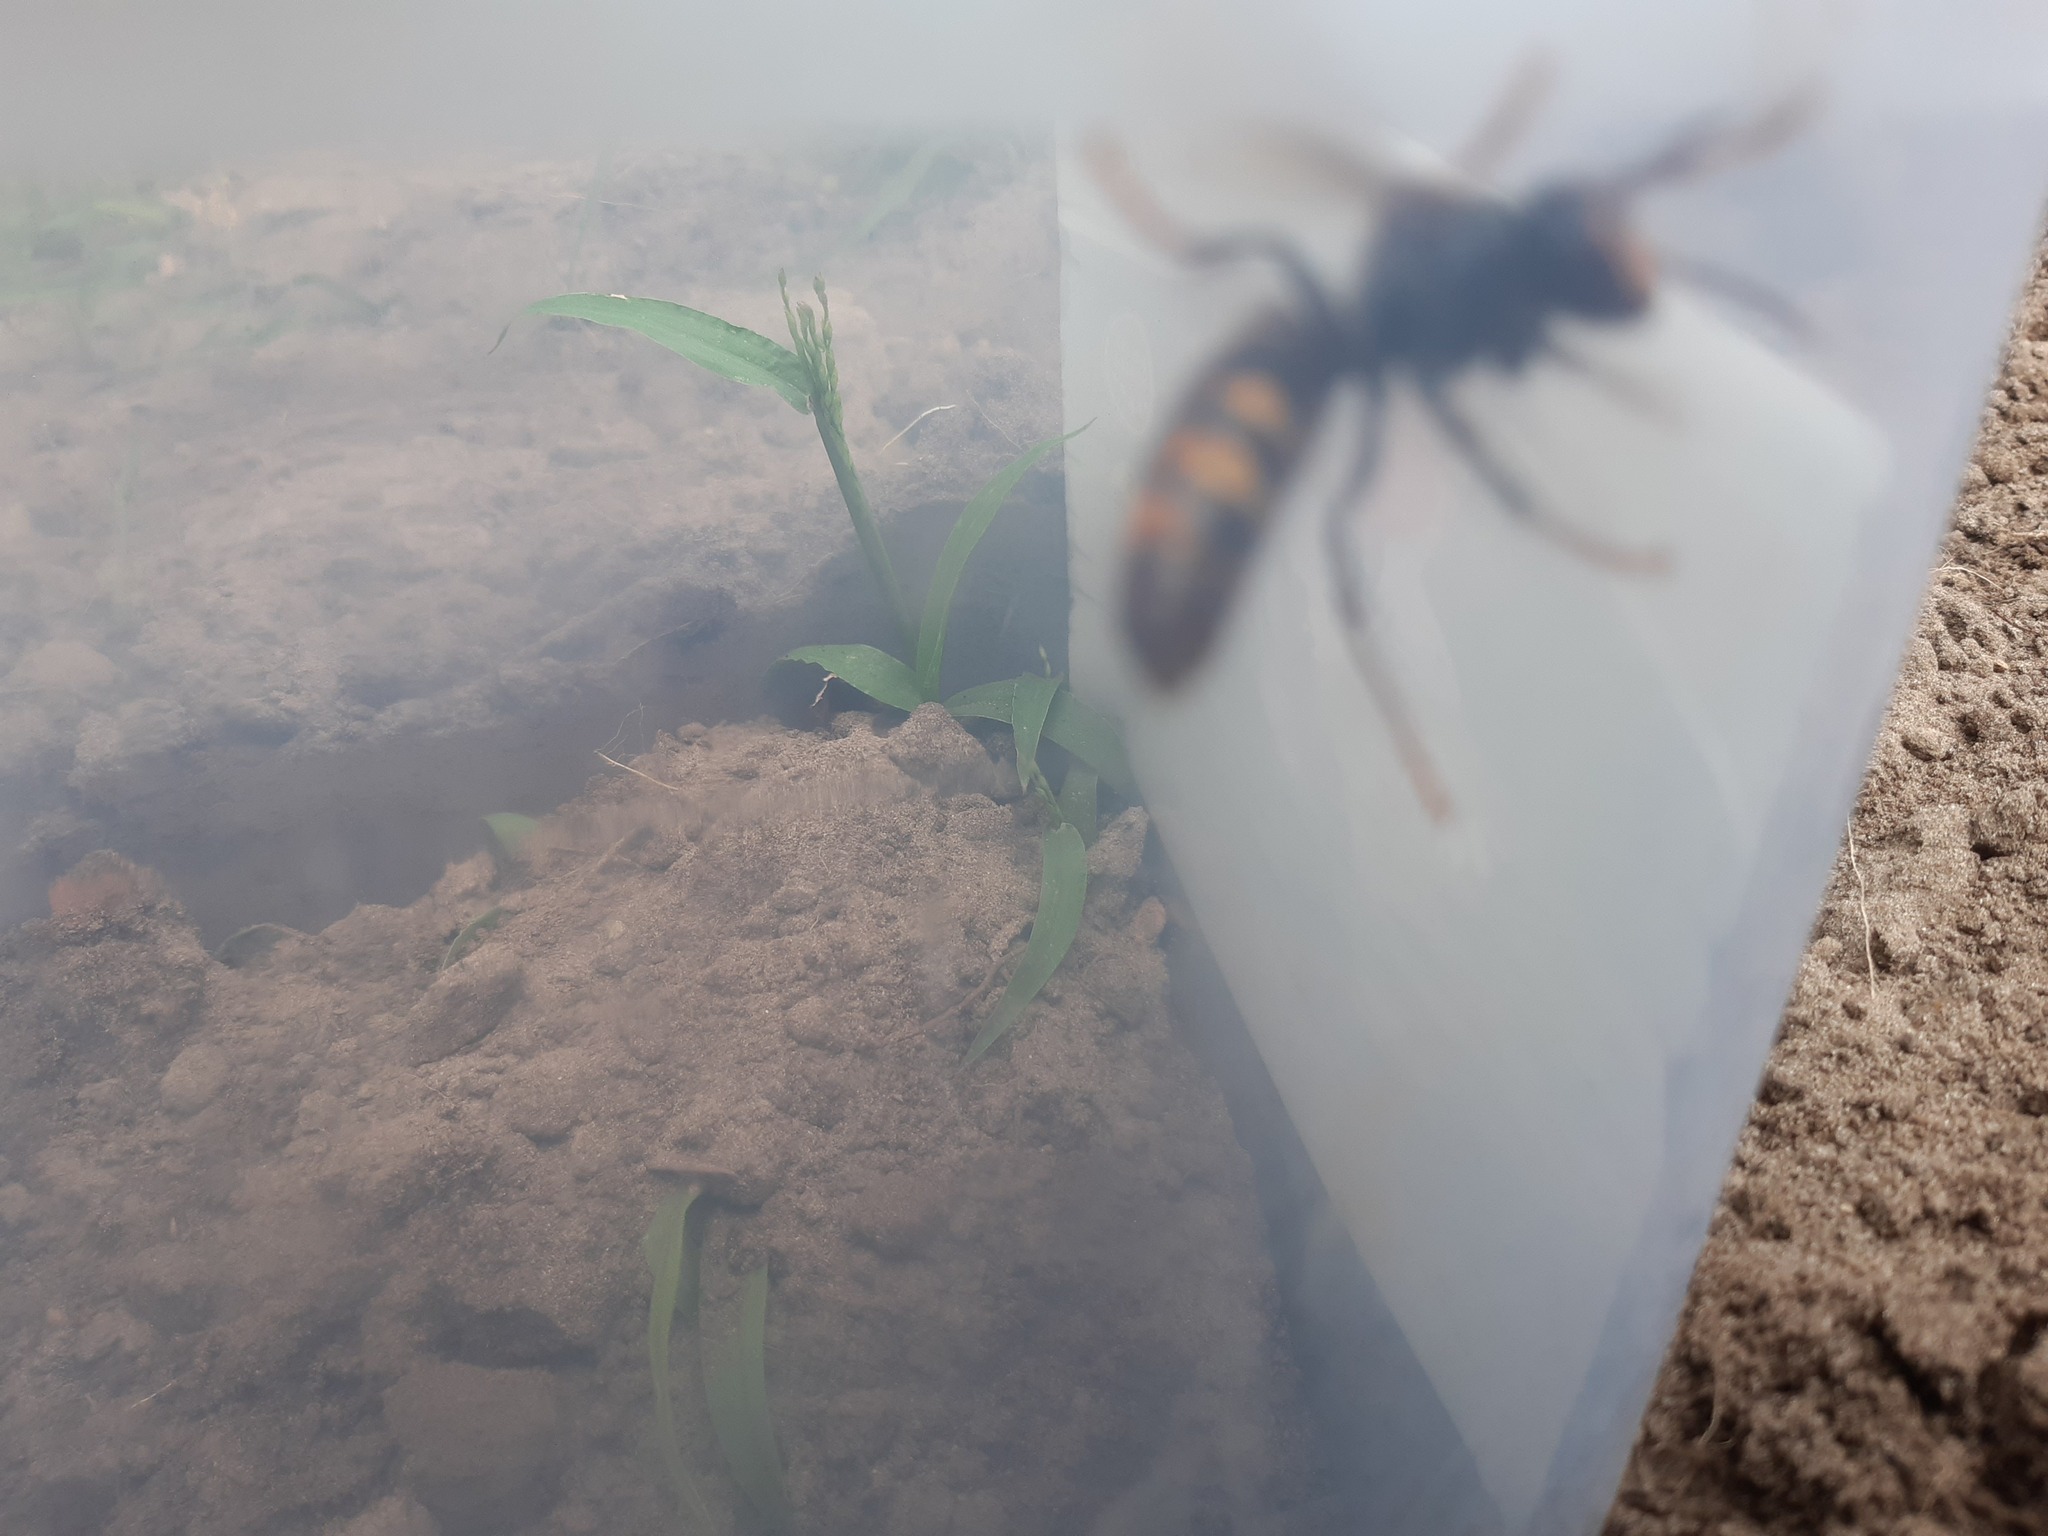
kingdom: Animalia
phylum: Arthropoda
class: Insecta
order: Hymenoptera
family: Vespidae
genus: Vespa
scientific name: Vespa velutina
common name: Asian hornet
